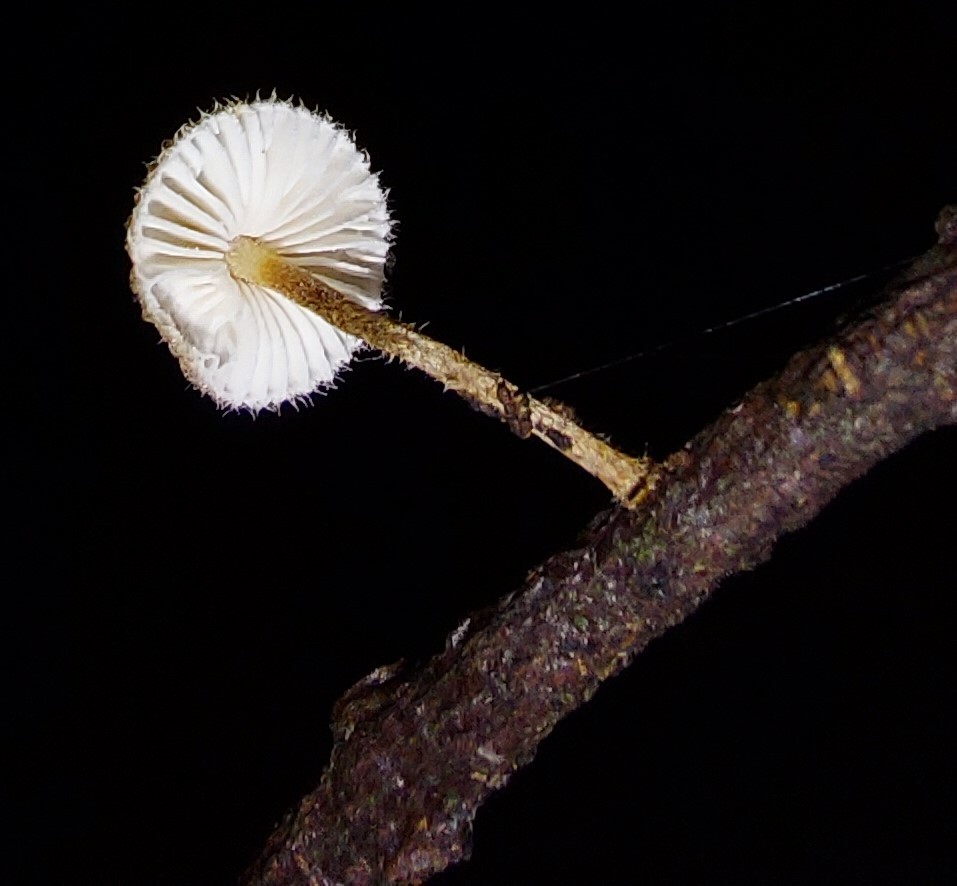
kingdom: Fungi
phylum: Basidiomycota
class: Agaricomycetes
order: Agaricales
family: Marasmiaceae
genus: Crinipellis
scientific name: Crinipellis filiformis
